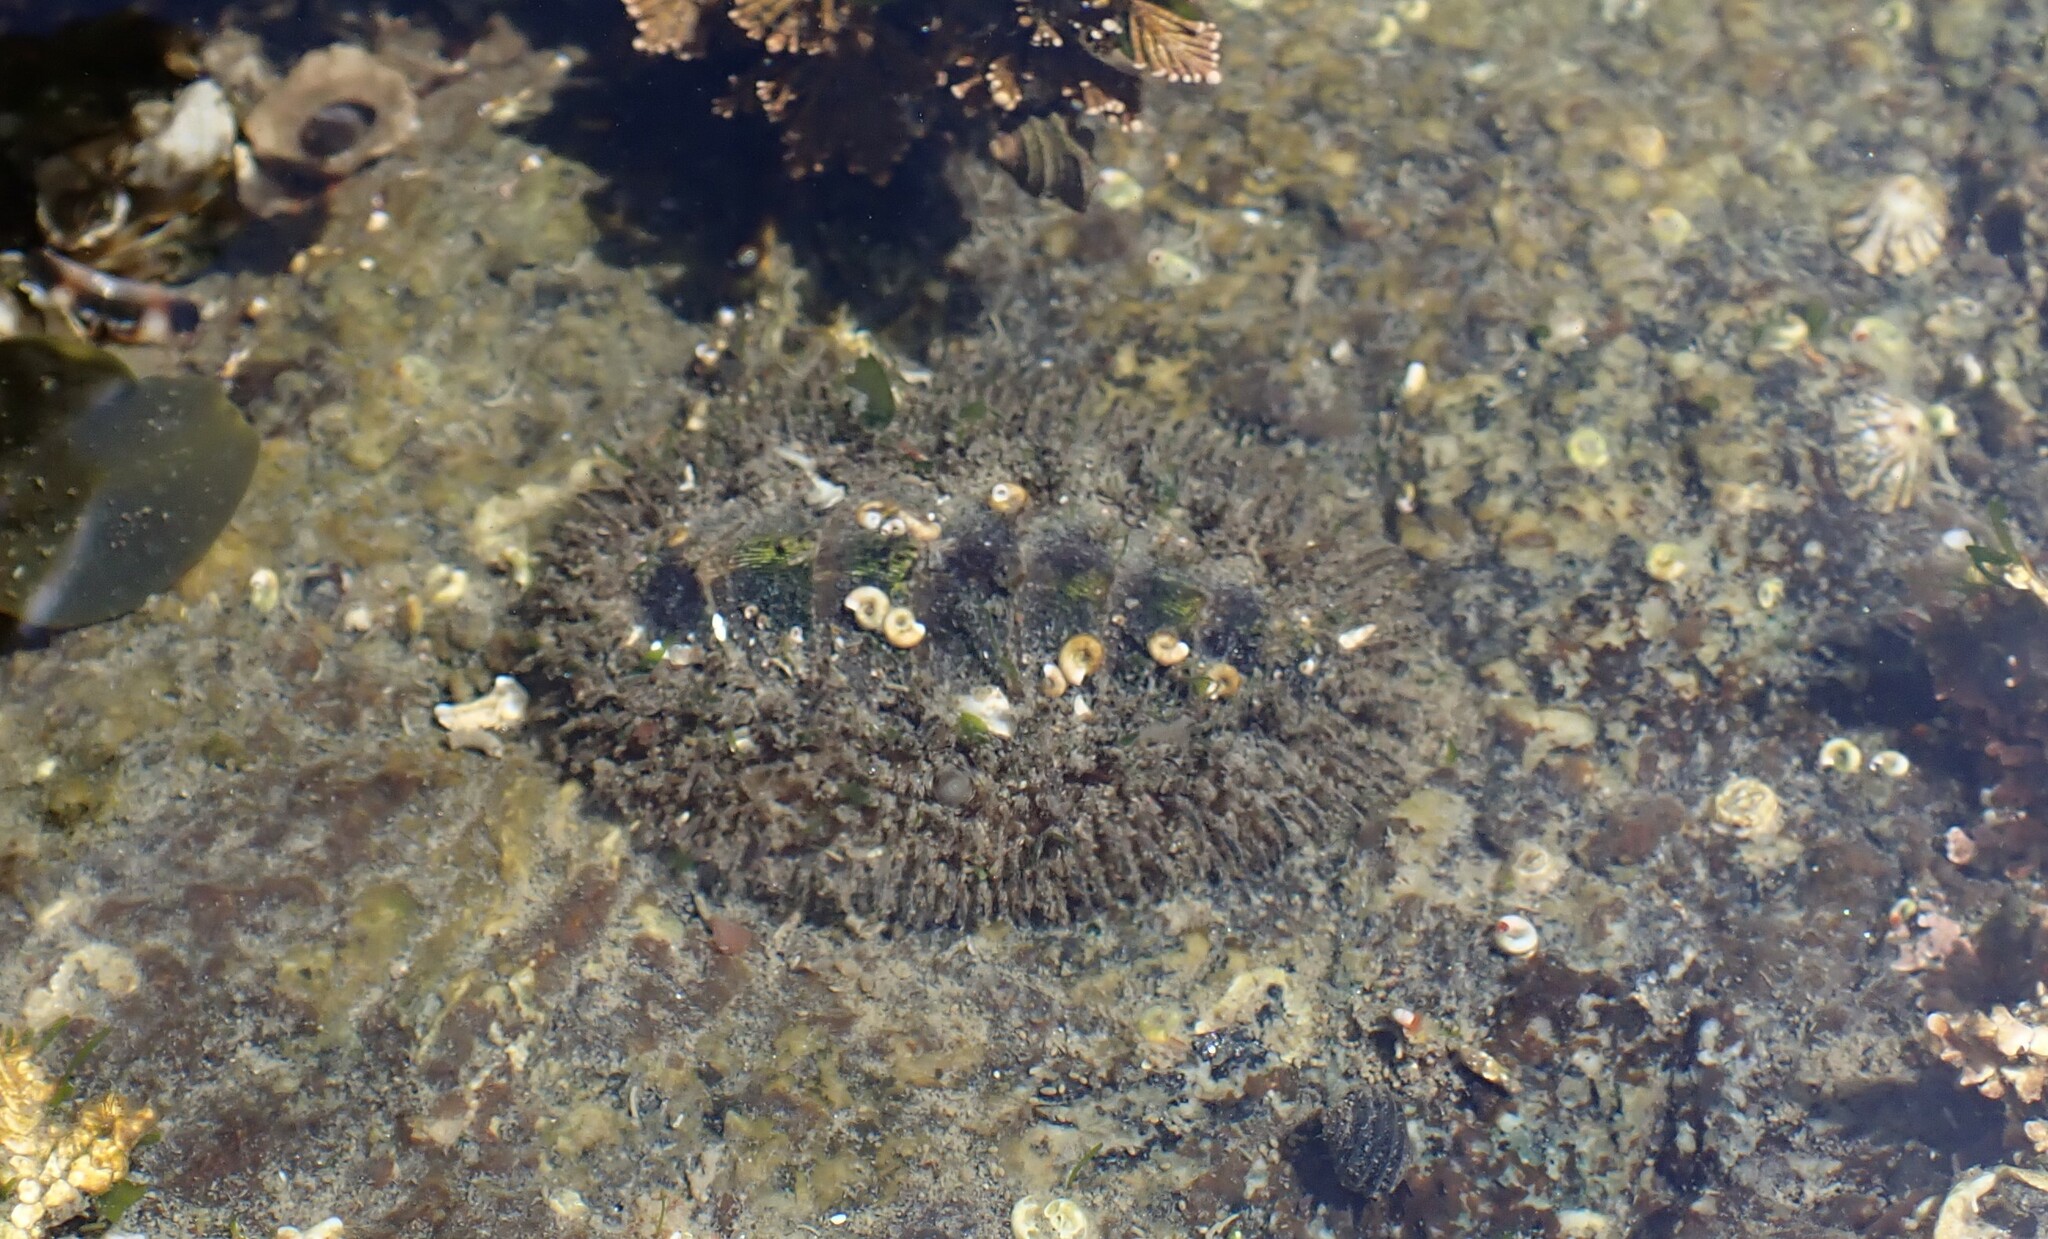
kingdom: Animalia
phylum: Mollusca
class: Polyplacophora
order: Chitonida
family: Mopaliidae
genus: Mopalia
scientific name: Mopalia muscosa
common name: Mossy chiton
